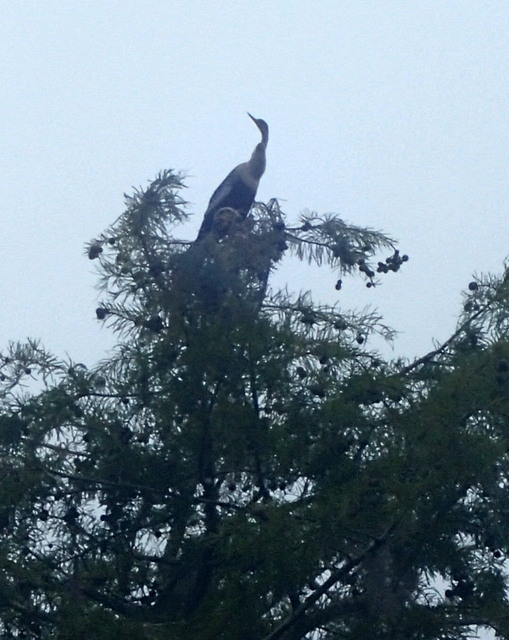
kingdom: Animalia
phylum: Chordata
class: Aves
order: Suliformes
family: Anhingidae
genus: Anhinga
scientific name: Anhinga anhinga
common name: Anhinga
